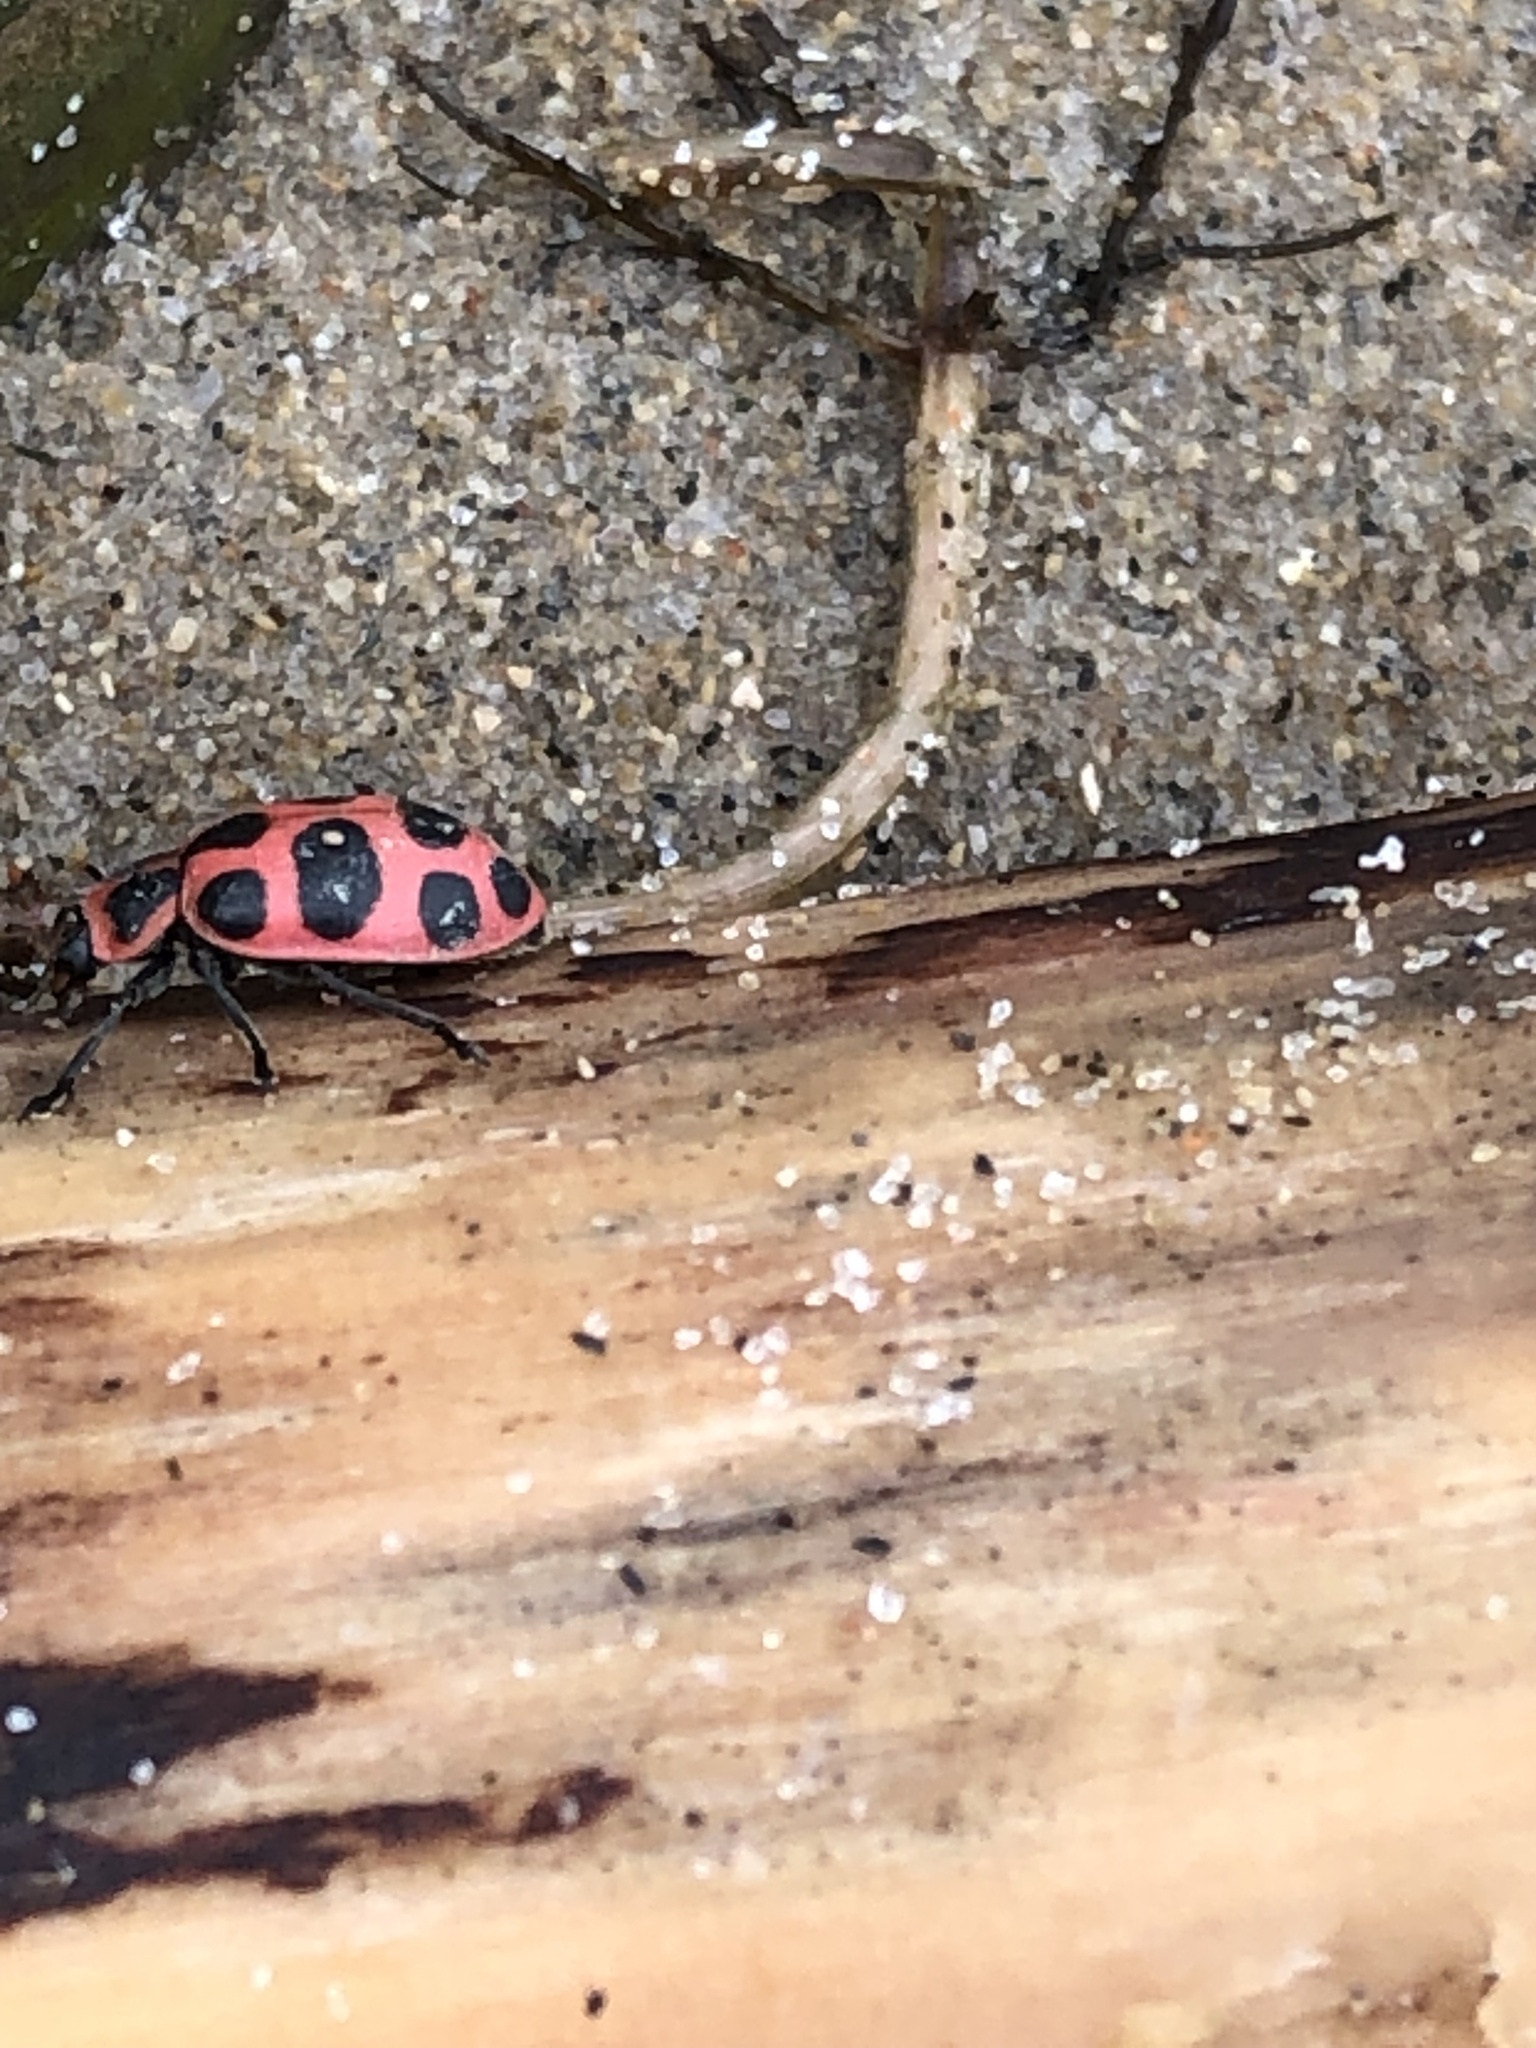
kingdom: Animalia
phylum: Arthropoda
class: Insecta
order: Coleoptera
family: Coccinellidae
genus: Coleomegilla
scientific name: Coleomegilla maculata
